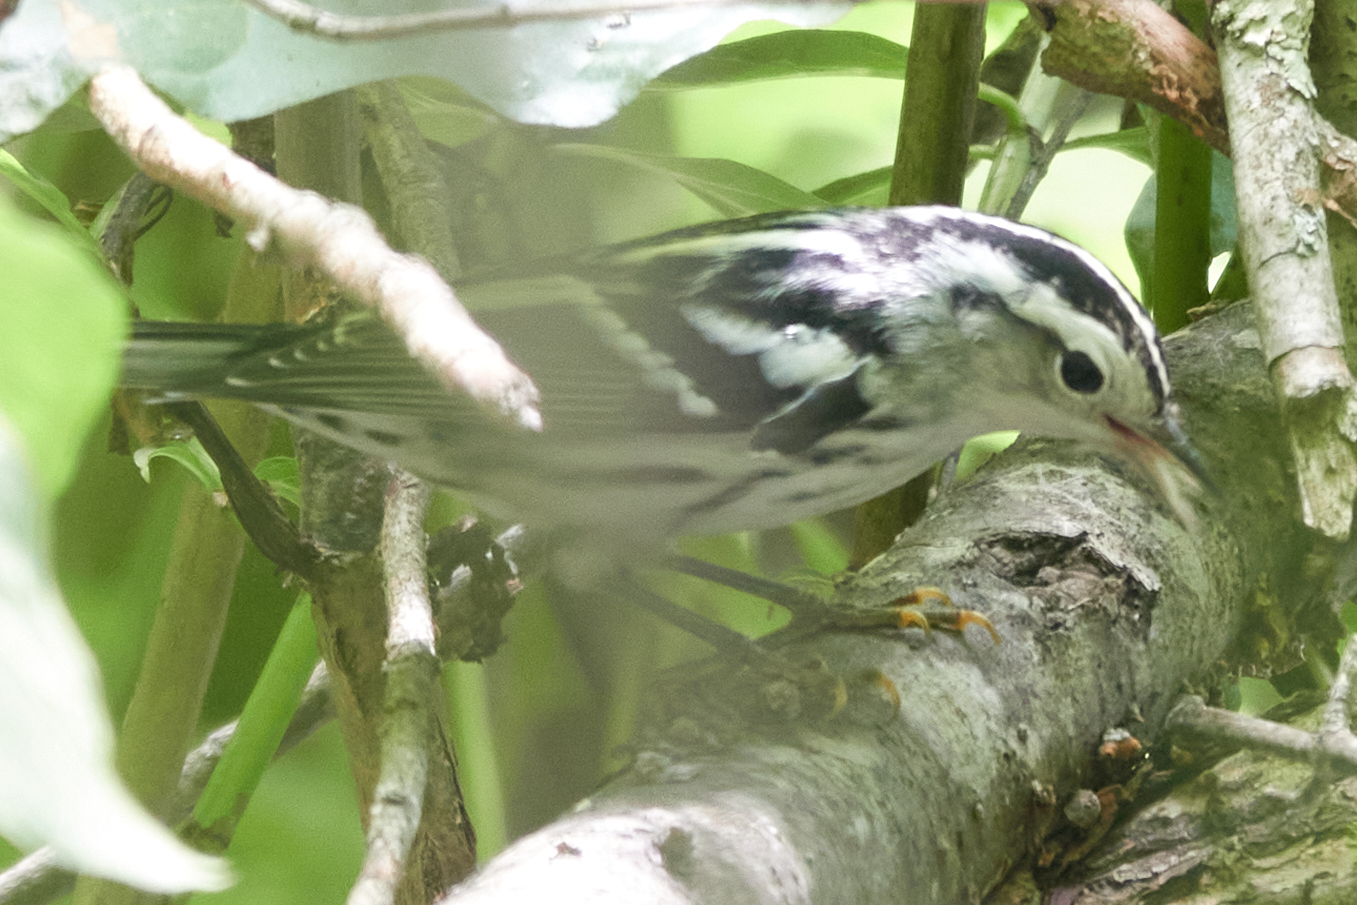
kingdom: Animalia
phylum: Chordata
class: Aves
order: Passeriformes
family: Parulidae
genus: Mniotilta
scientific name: Mniotilta varia
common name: Black-and-white warbler
